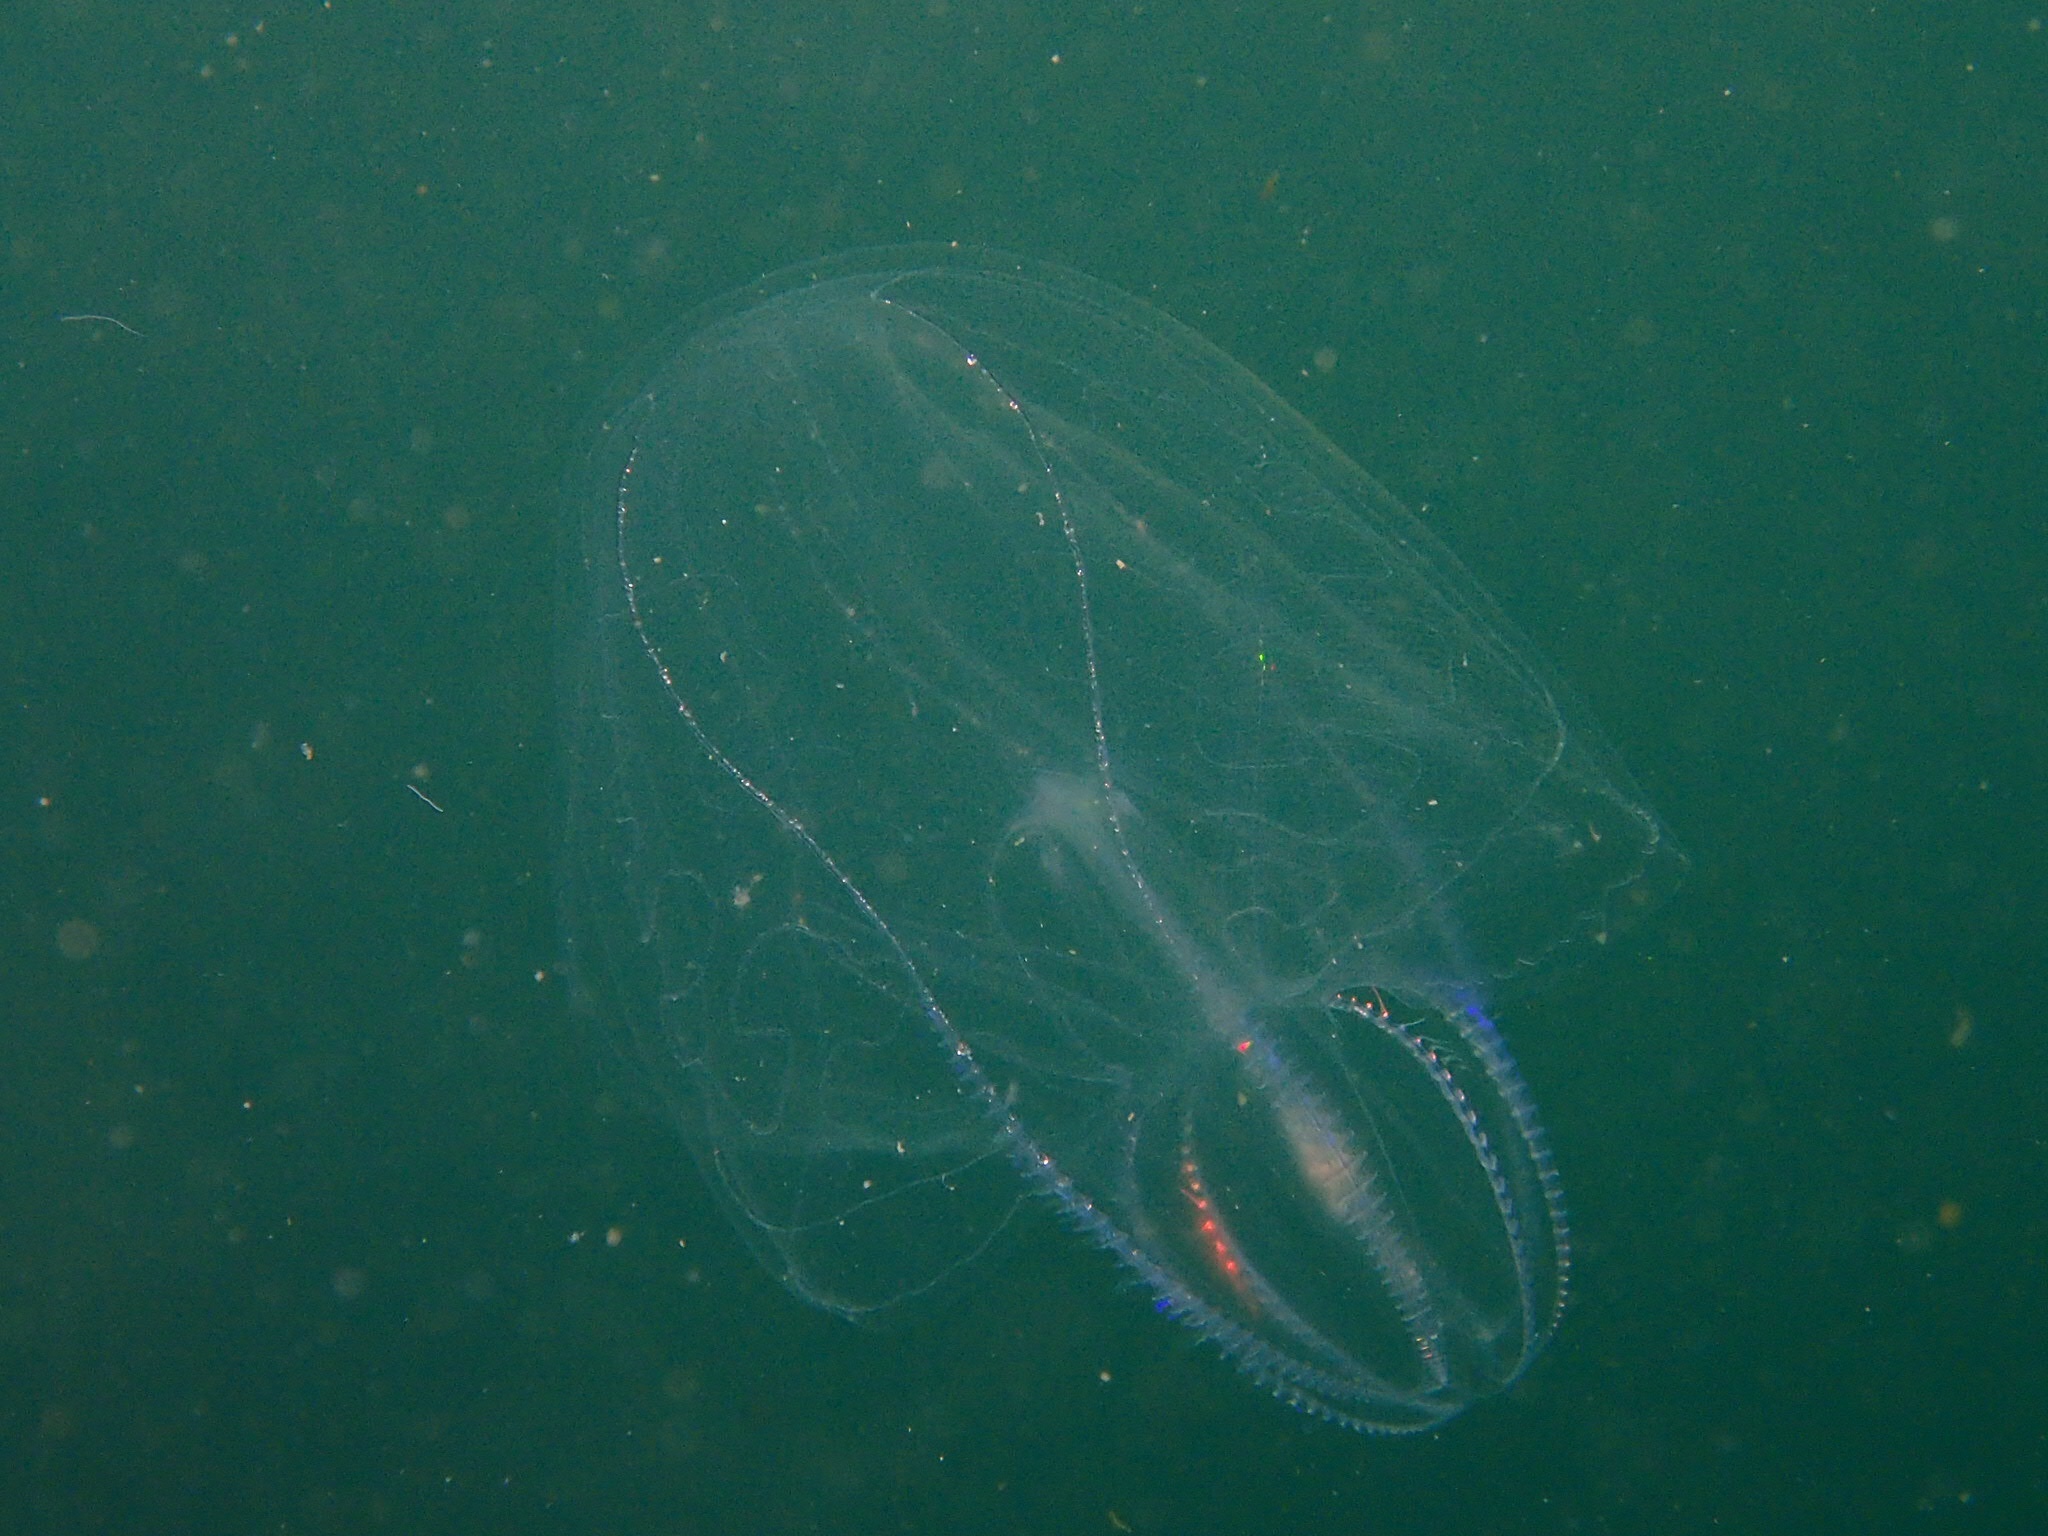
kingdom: Animalia
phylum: Ctenophora
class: Tentaculata
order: Lobata
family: Bolinopsidae
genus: Mnemiopsis
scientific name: Mnemiopsis leidyi
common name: American comb jelly
